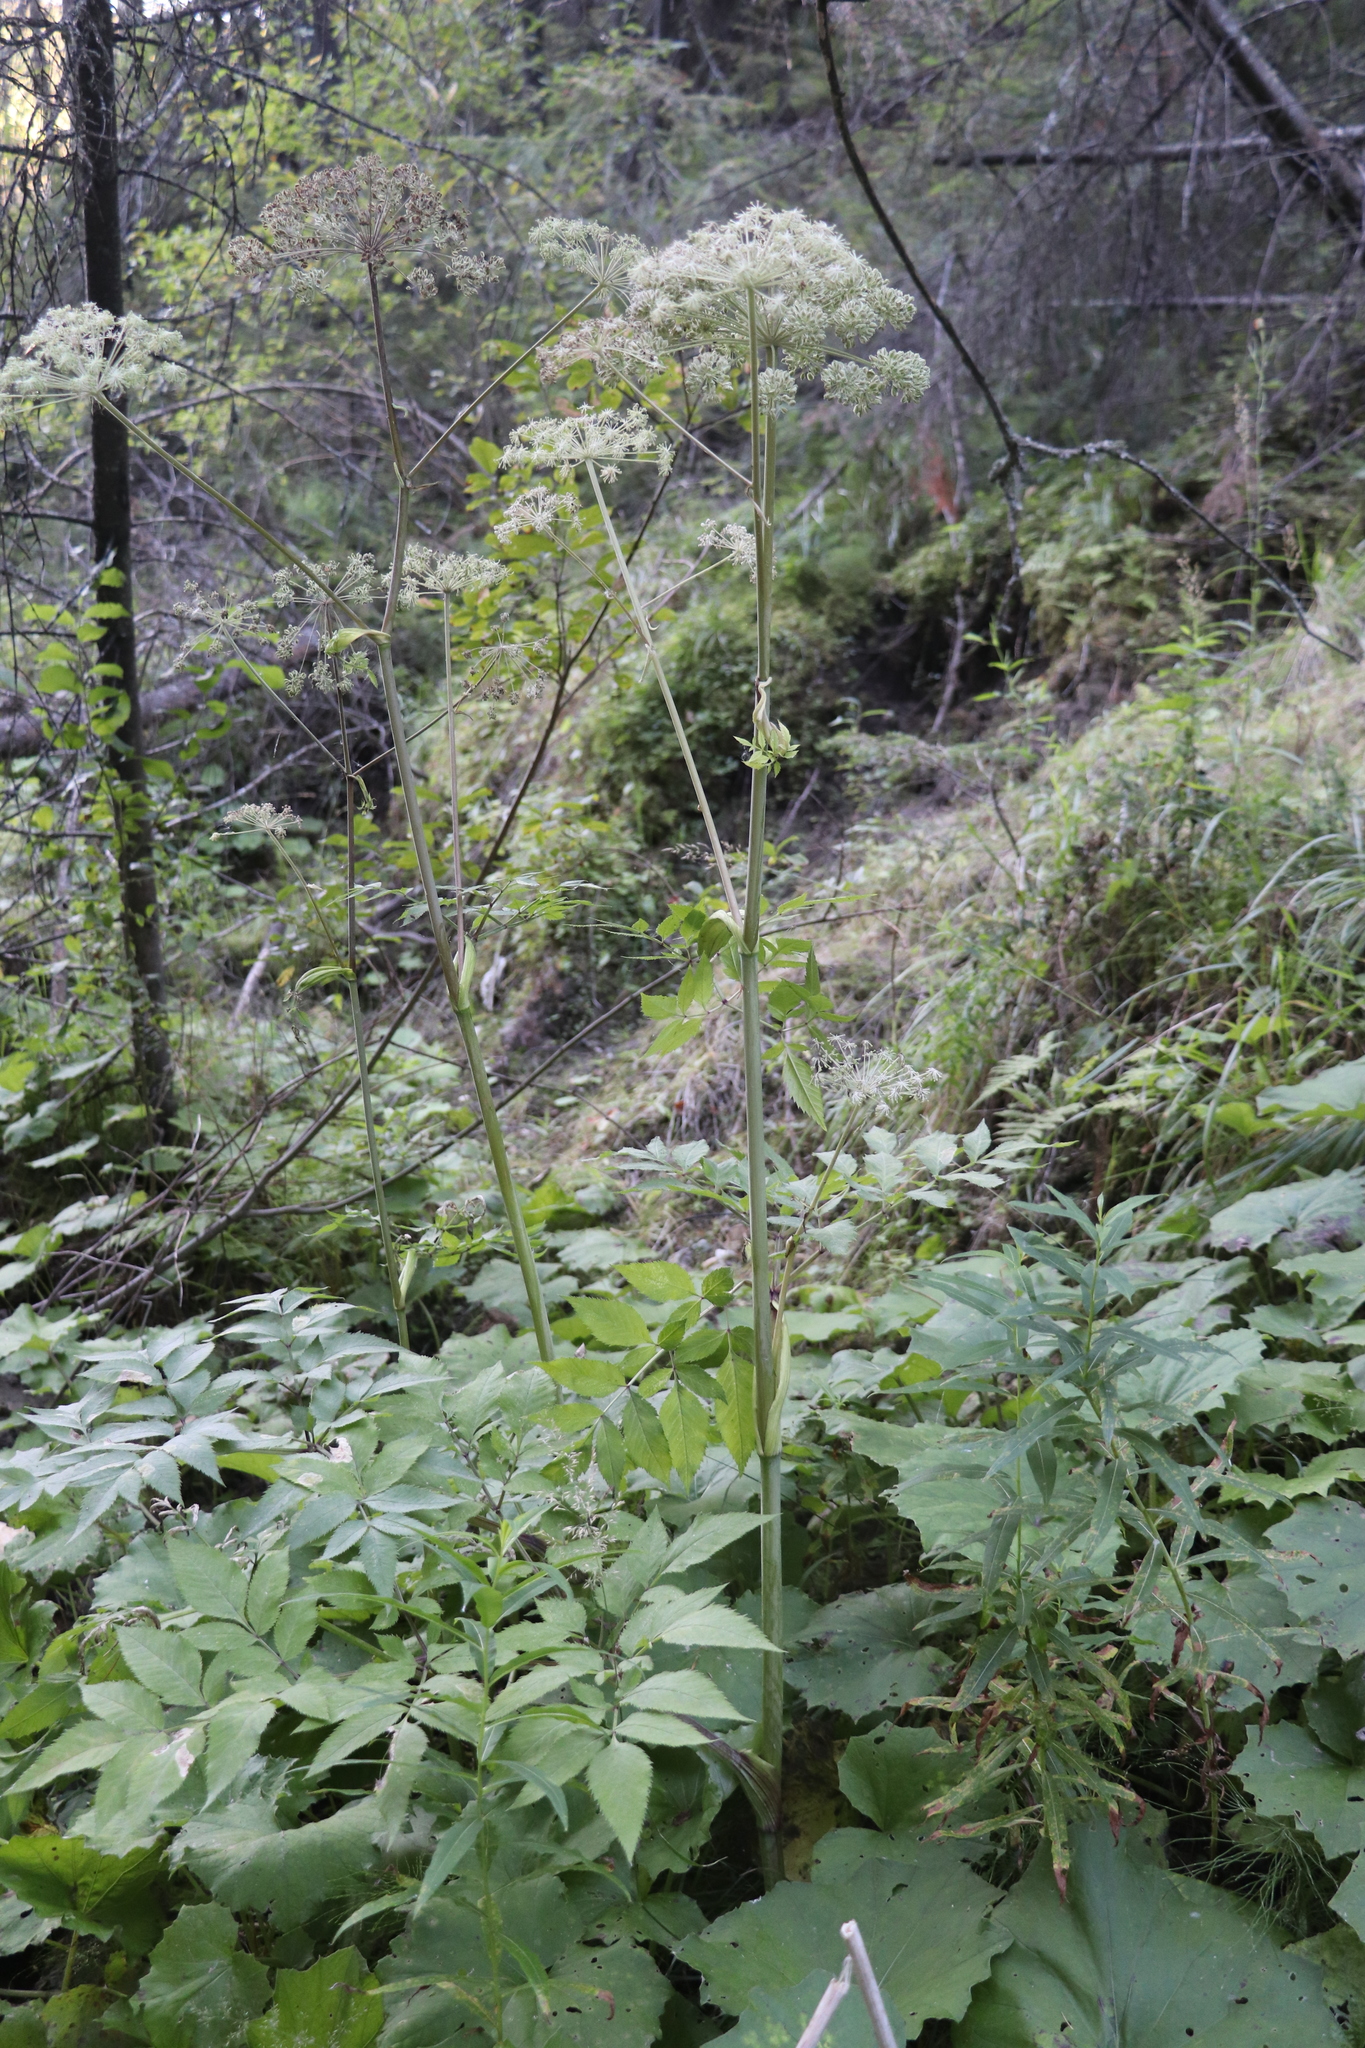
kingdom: Plantae
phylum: Tracheophyta
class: Magnoliopsida
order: Apiales
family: Apiaceae
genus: Angelica
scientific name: Angelica sylvestris
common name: Wild angelica
